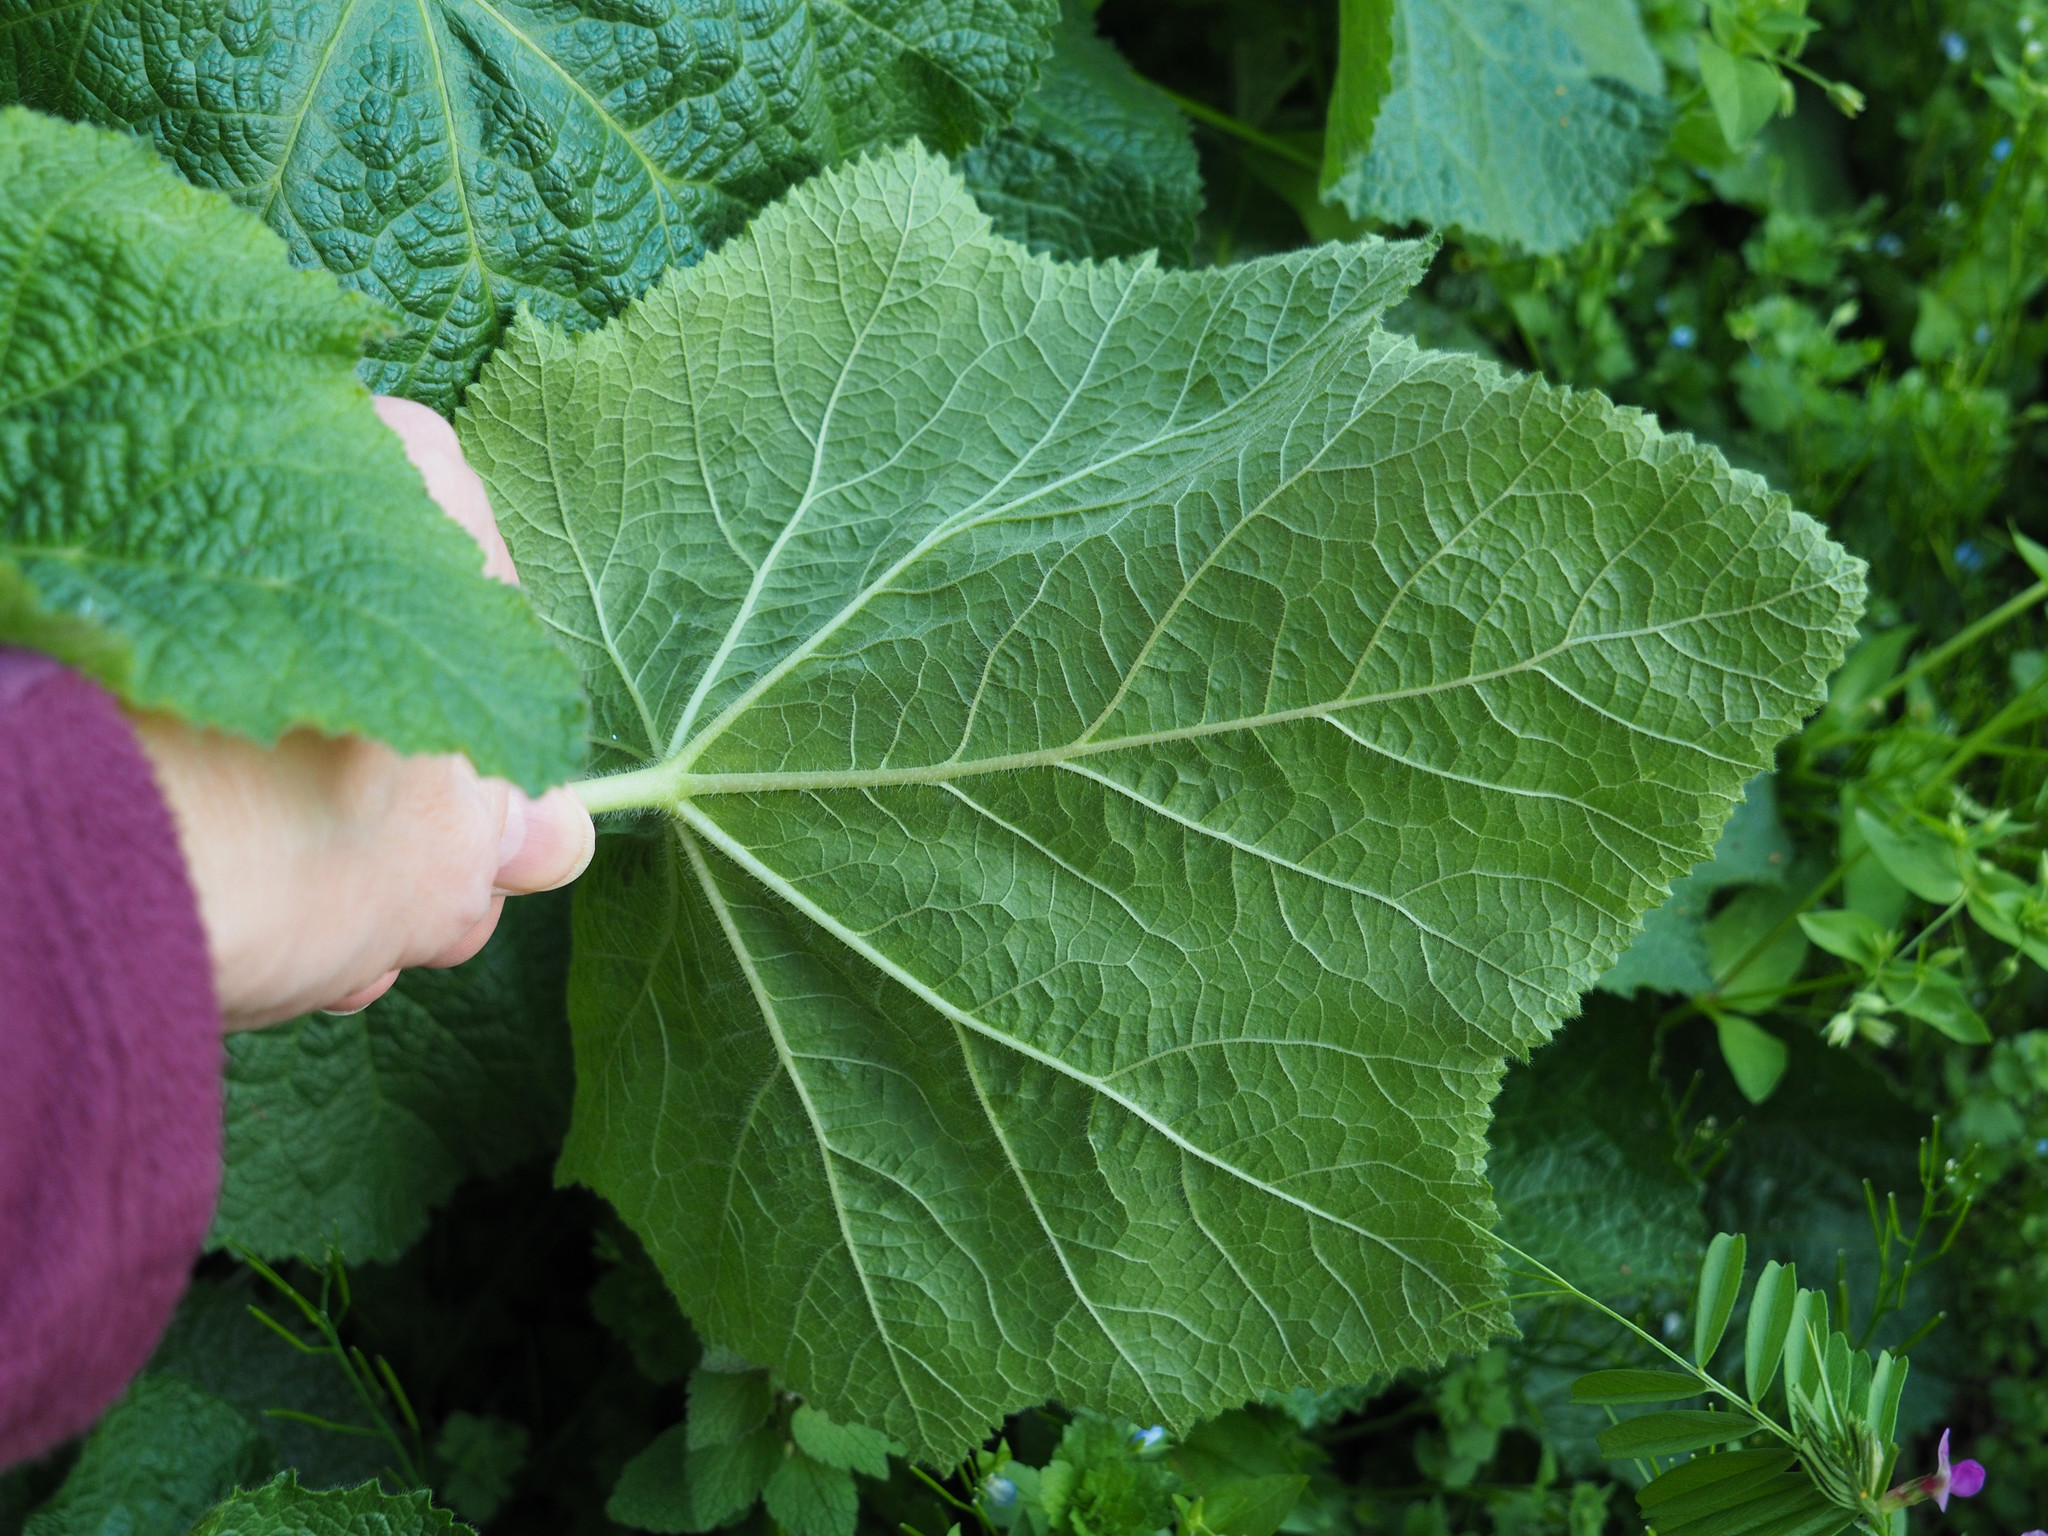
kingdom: Plantae
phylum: Tracheophyta
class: Magnoliopsida
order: Lamiales
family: Paulowniaceae
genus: Paulownia
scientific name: Paulownia tomentosa
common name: Foxglove-tree
